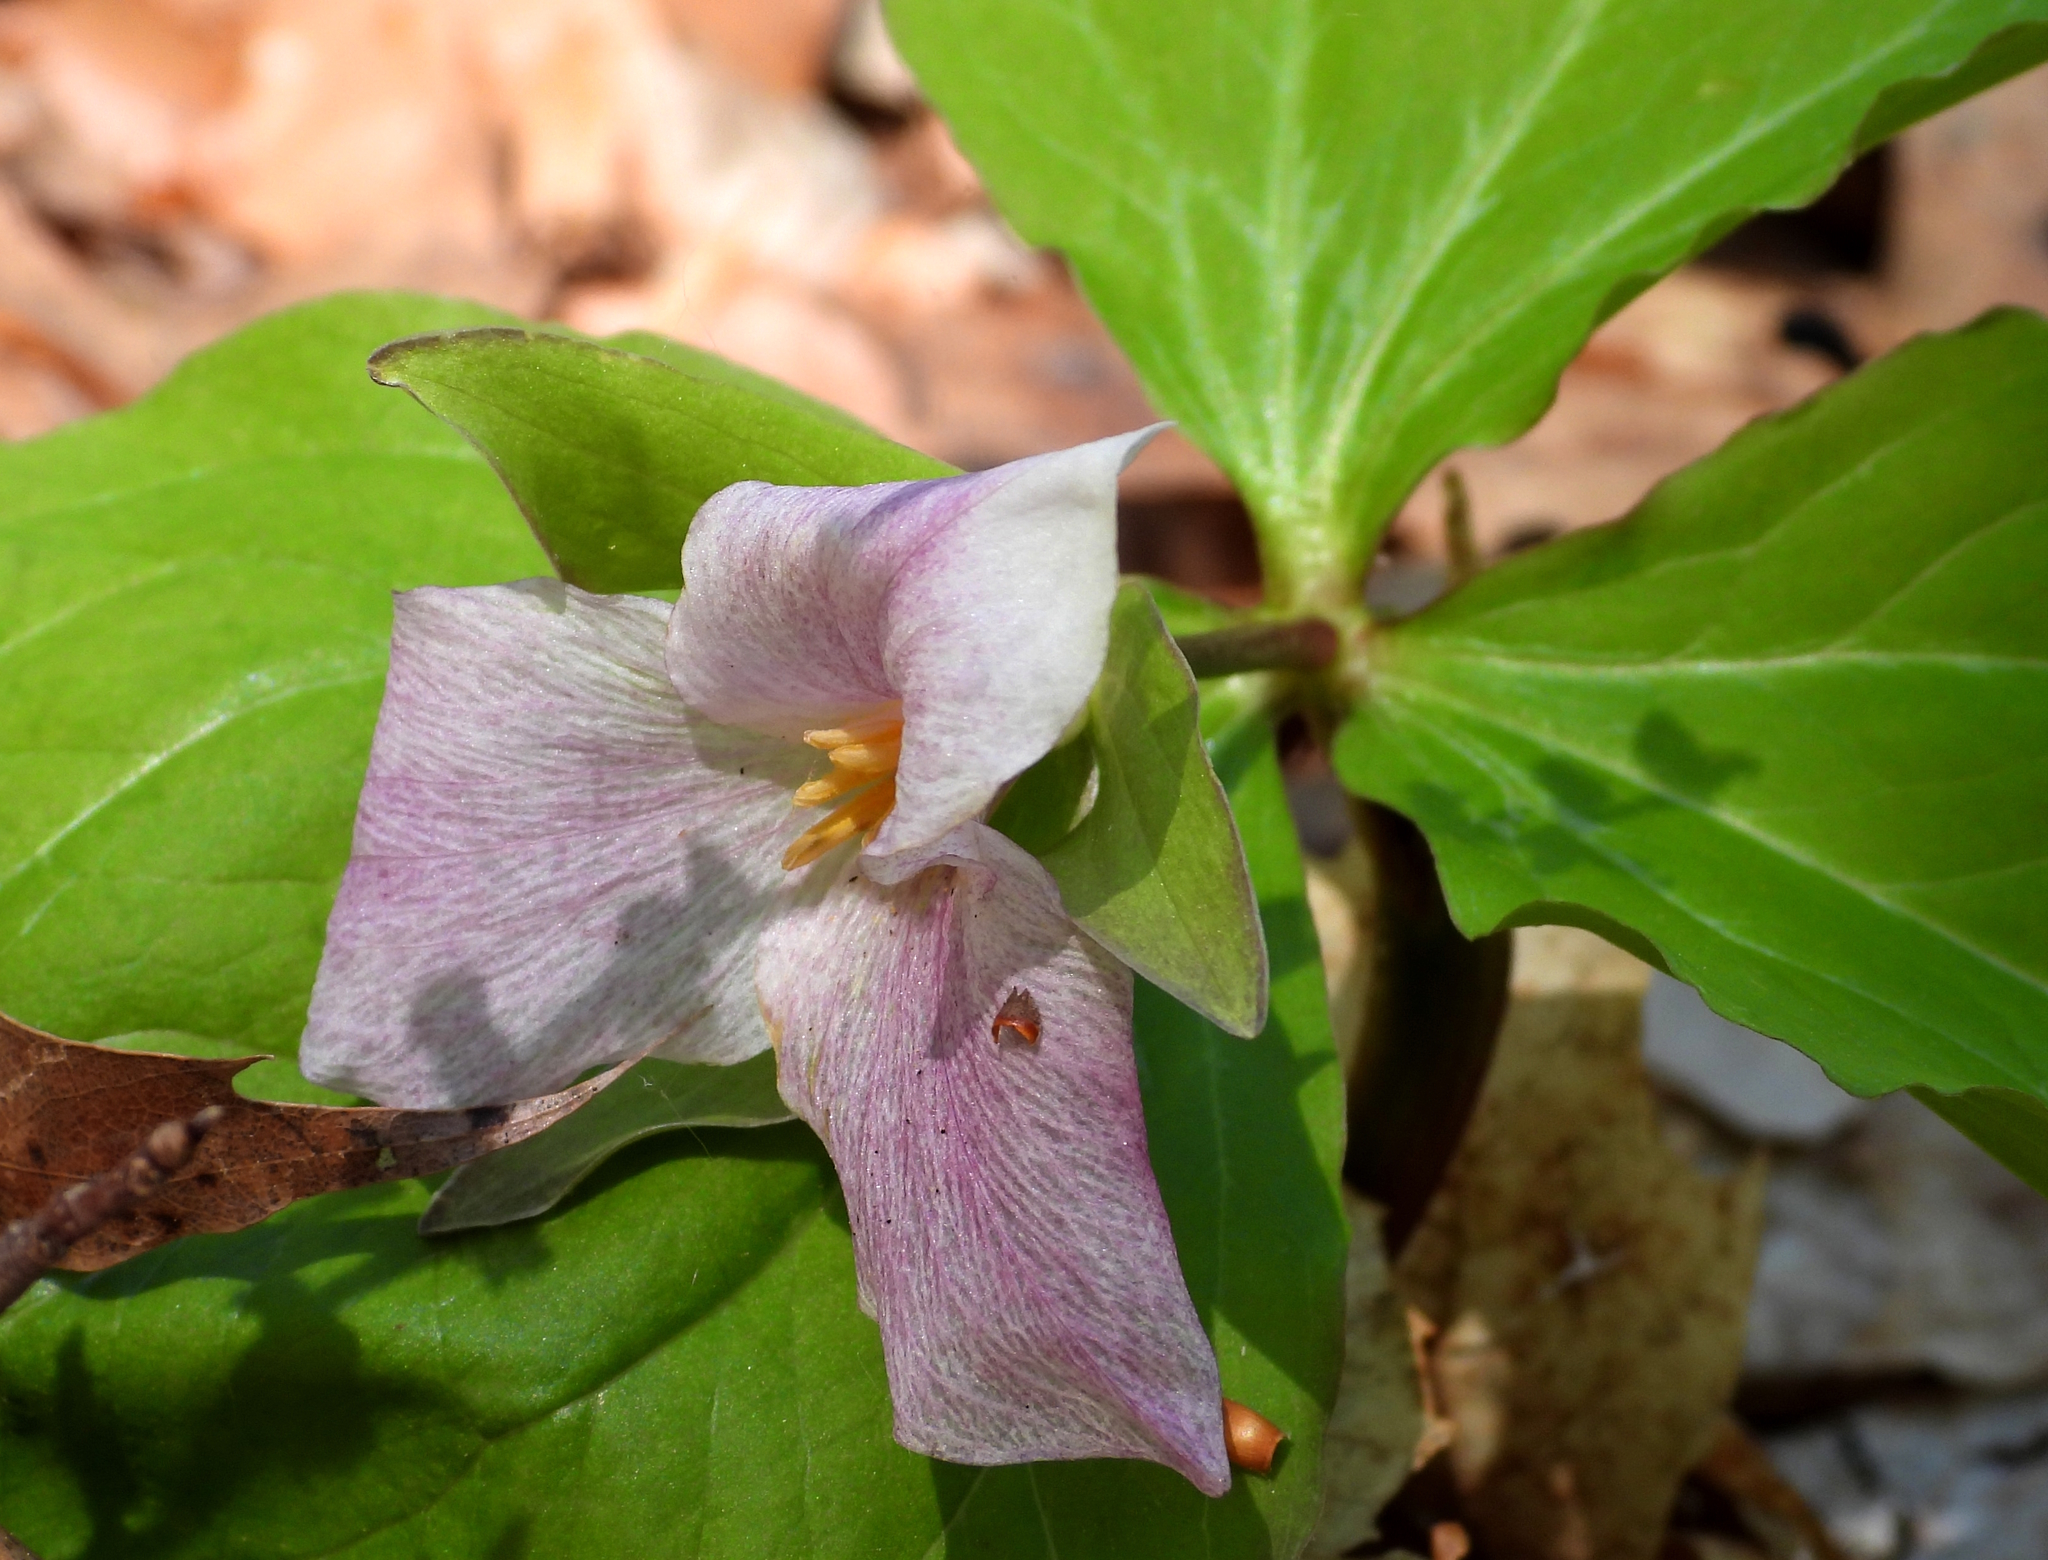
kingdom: Plantae
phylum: Tracheophyta
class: Liliopsida
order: Liliales
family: Melanthiaceae
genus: Trillium
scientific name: Trillium grandiflorum
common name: Great white trillium
